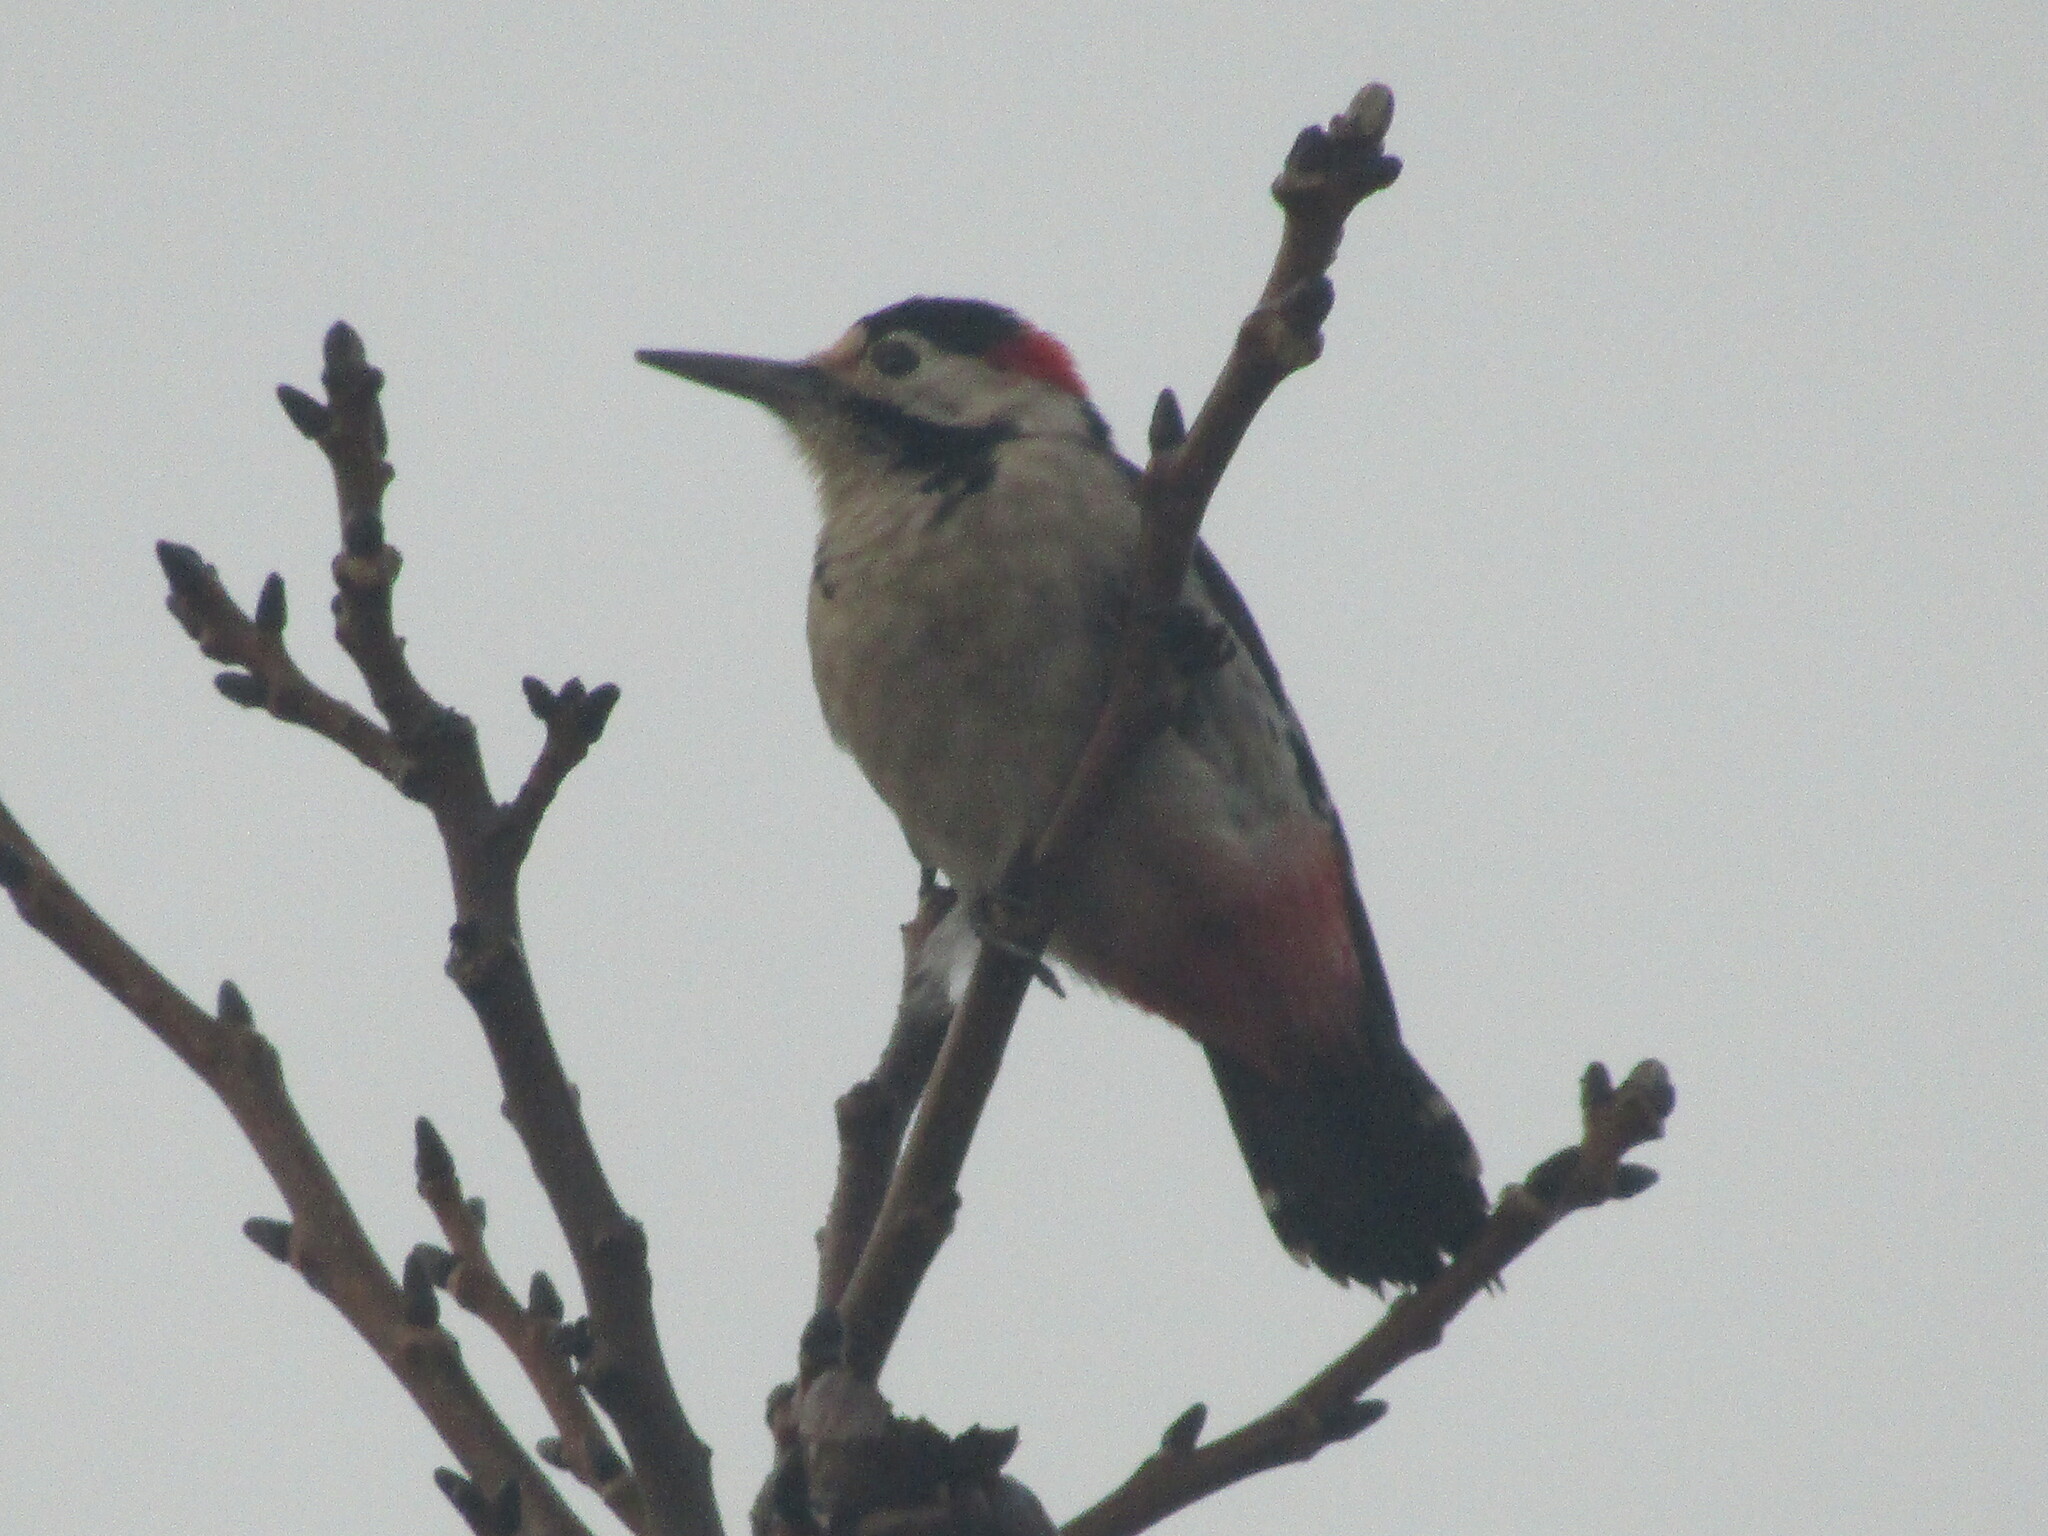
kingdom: Animalia
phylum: Chordata
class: Aves
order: Piciformes
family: Picidae
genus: Dendrocopos
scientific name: Dendrocopos syriacus
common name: Syrian woodpecker
